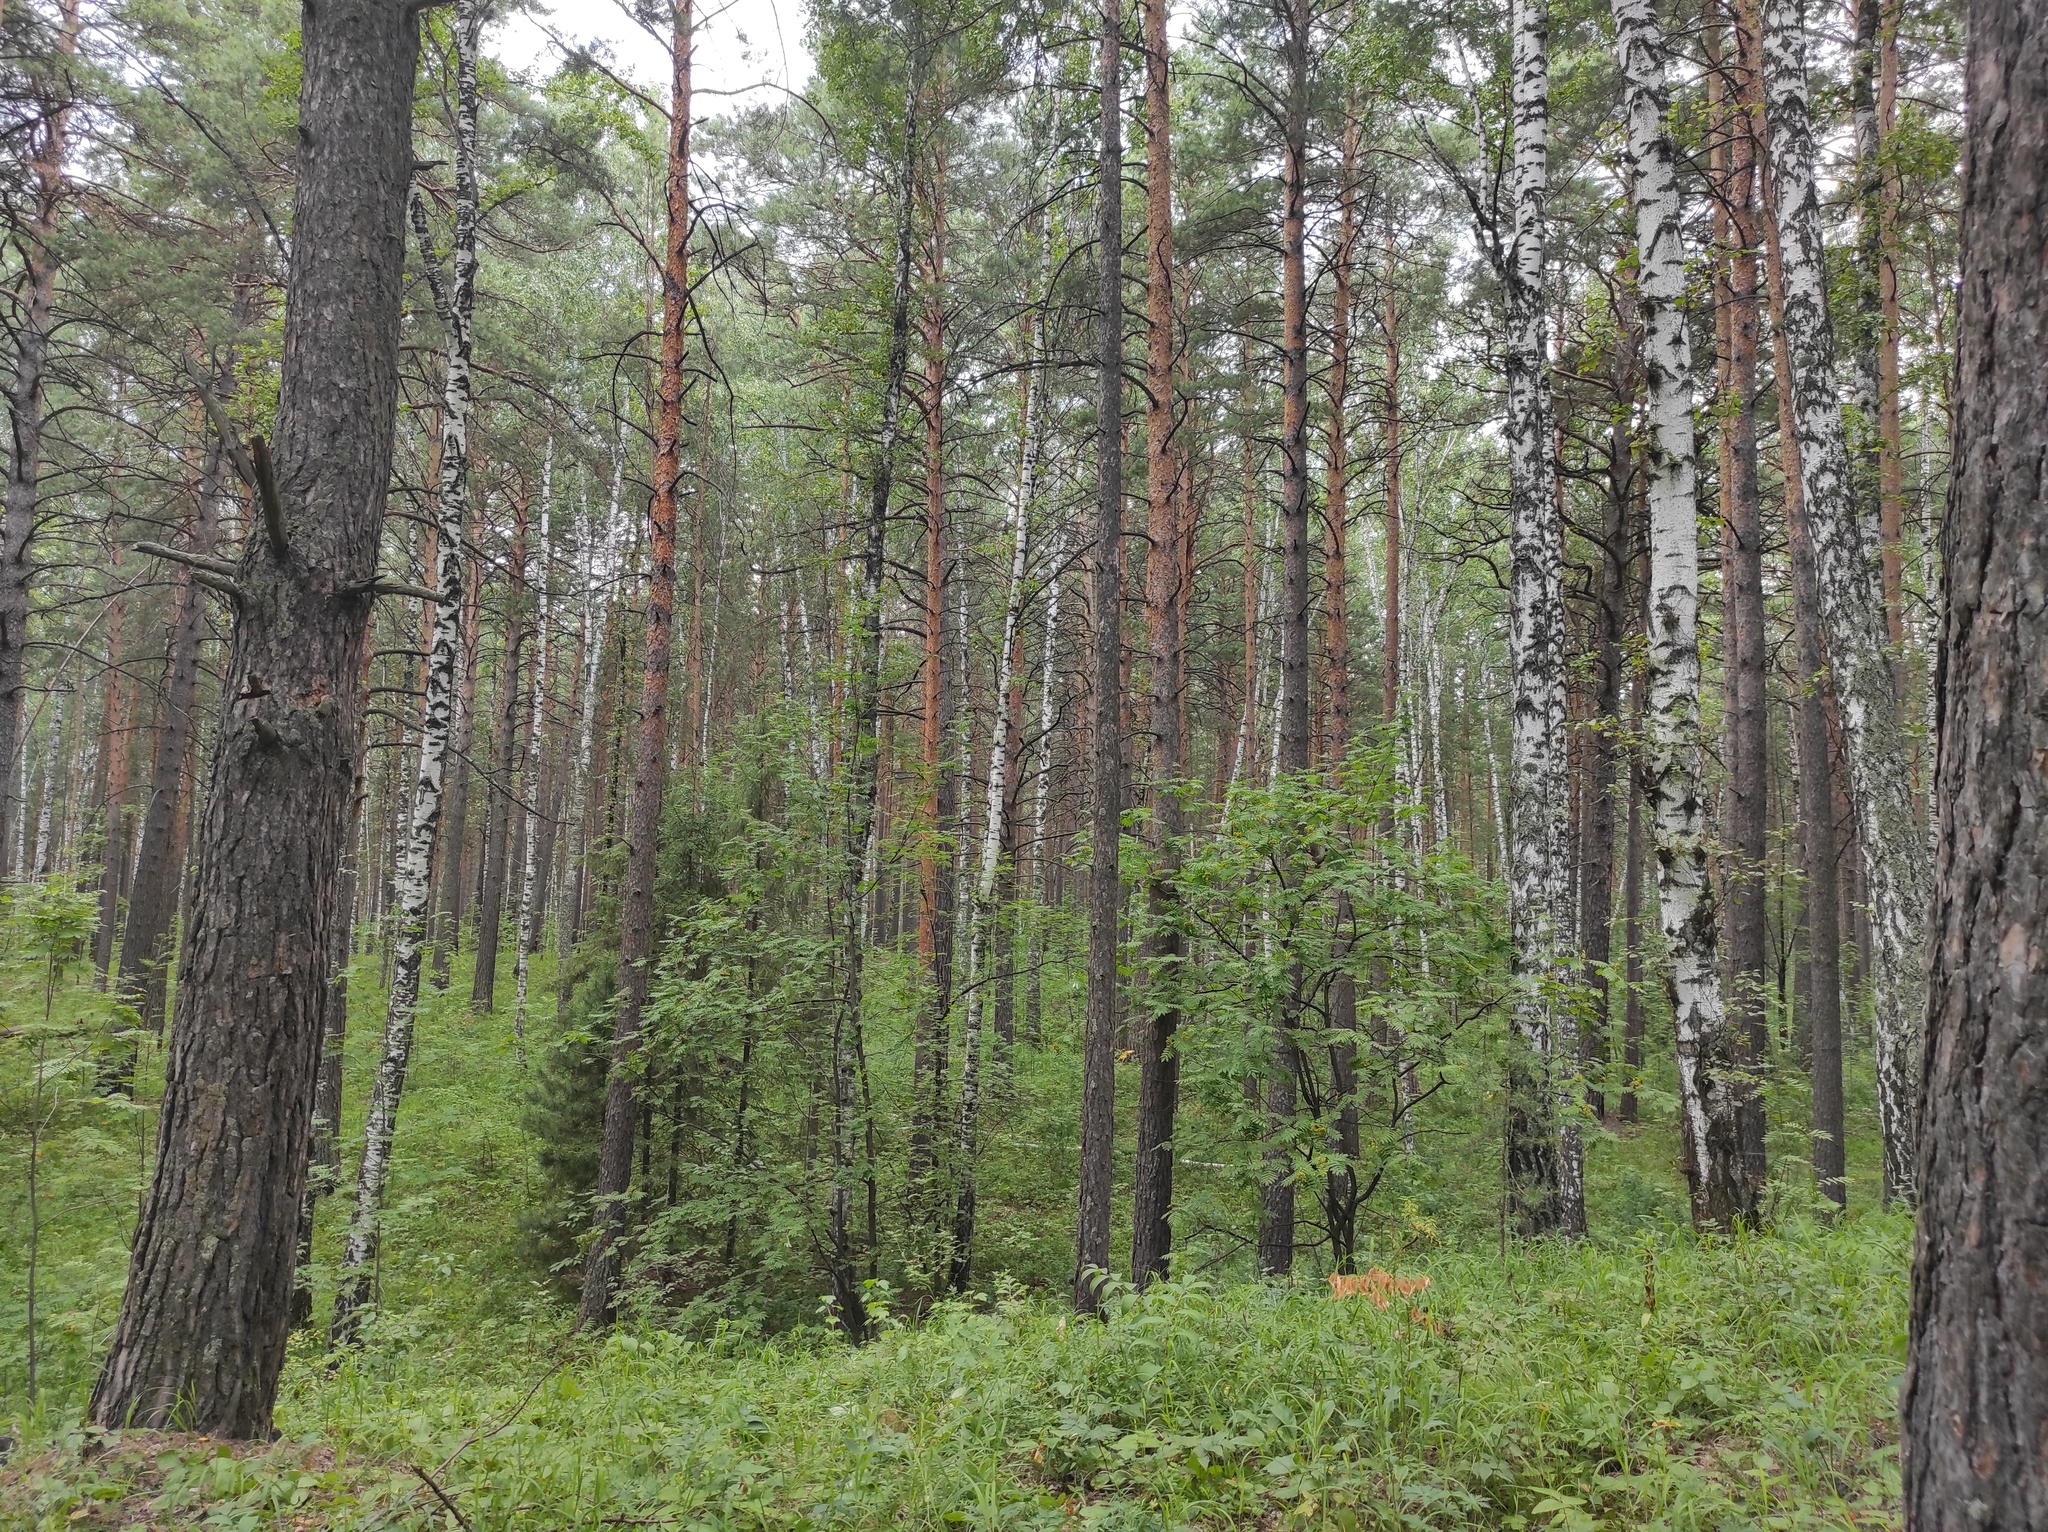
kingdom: Plantae
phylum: Tracheophyta
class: Pinopsida
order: Pinales
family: Pinaceae
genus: Pinus
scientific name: Pinus sylvestris
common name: Scots pine
